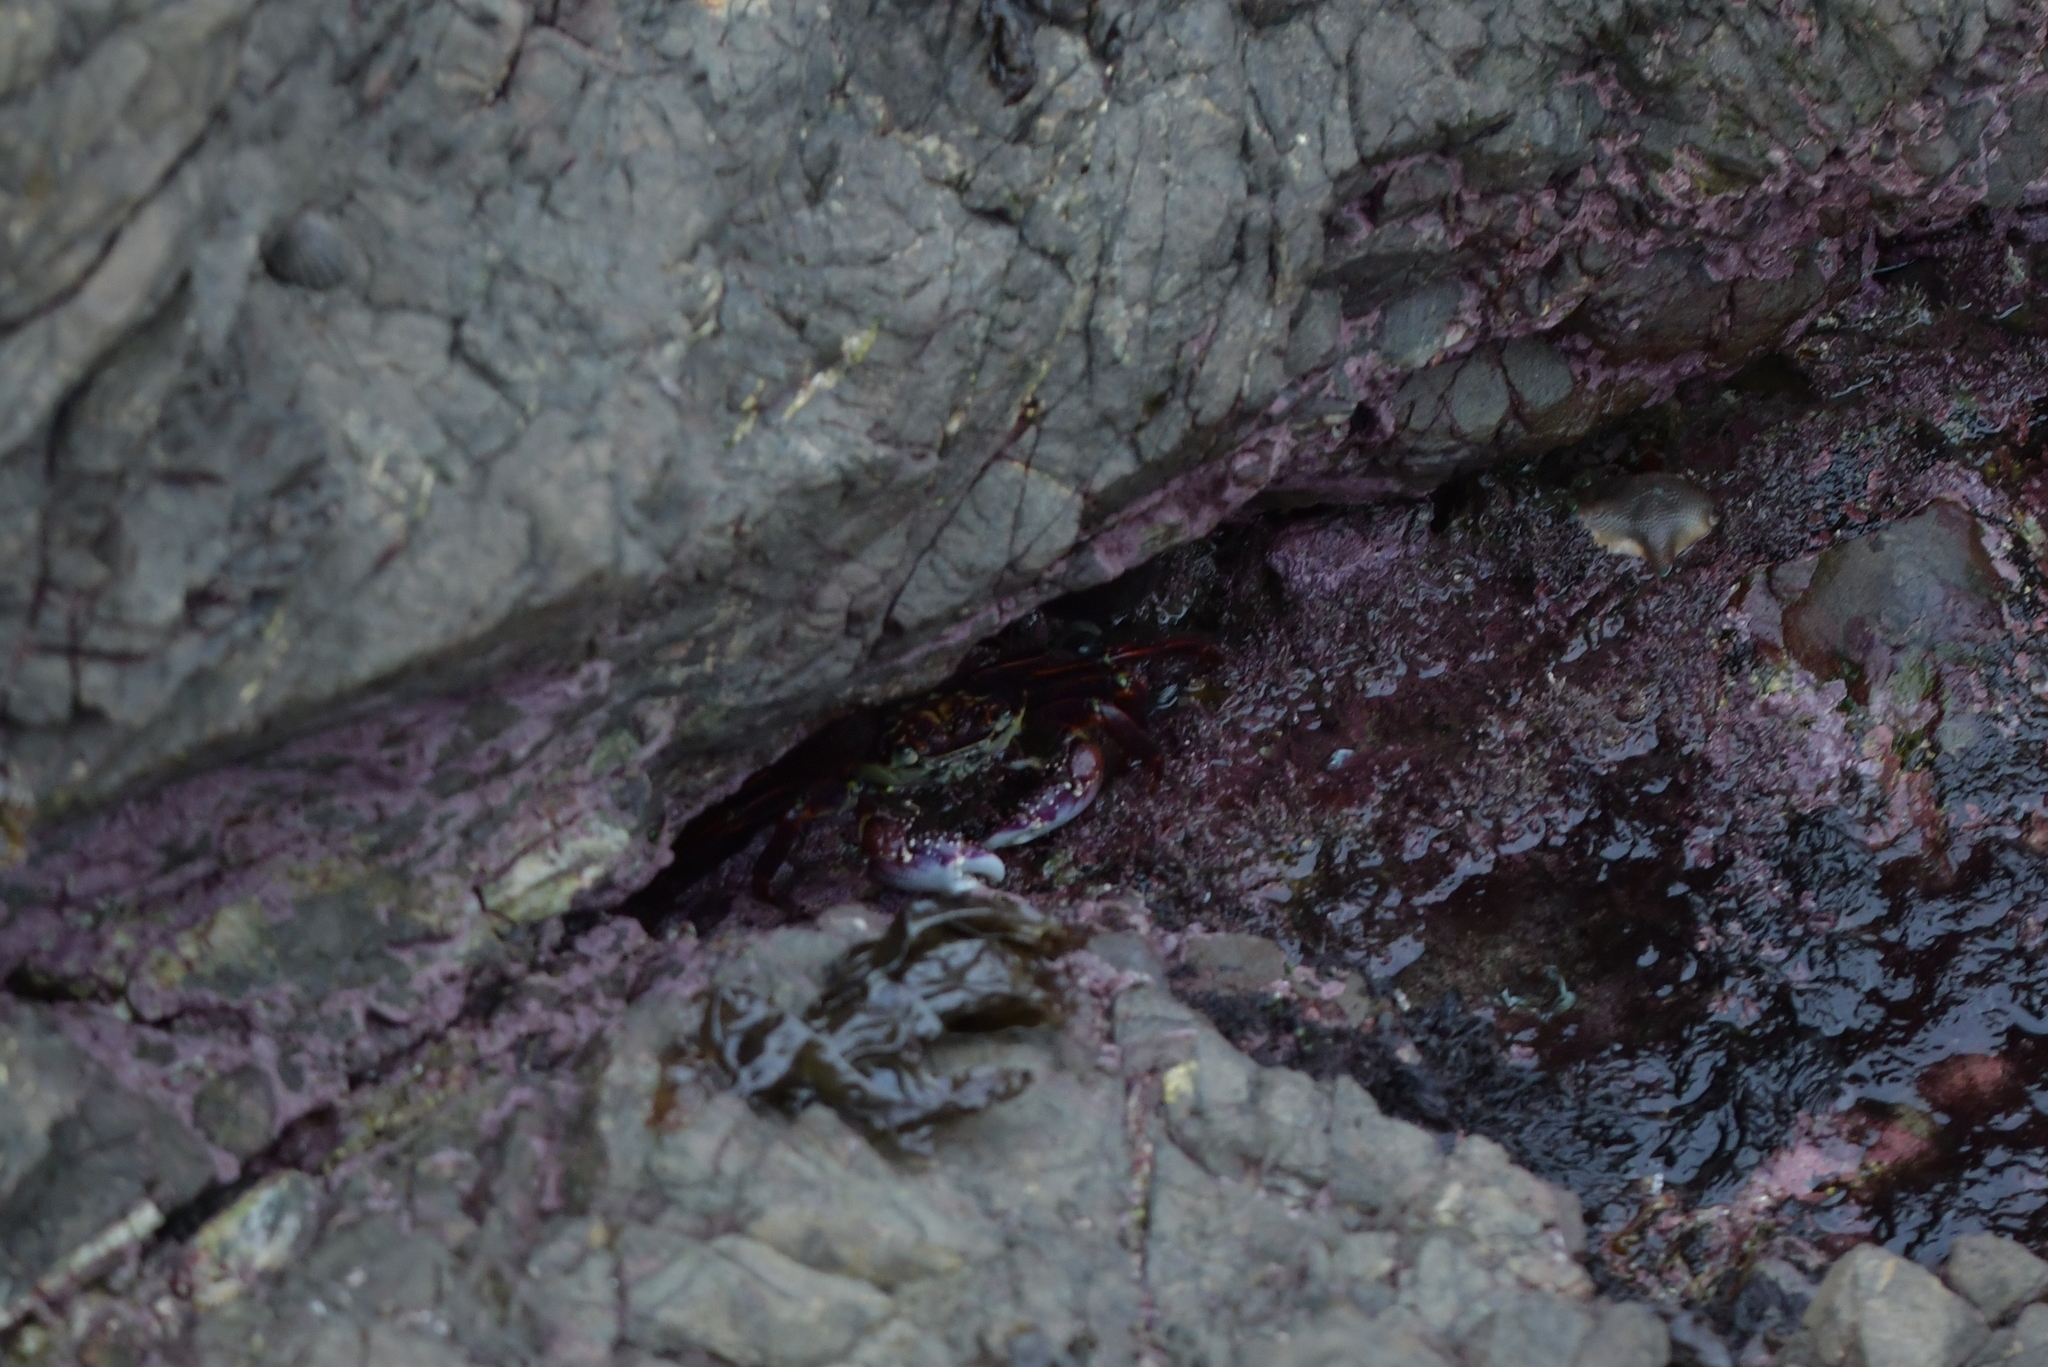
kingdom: Animalia
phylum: Arthropoda
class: Malacostraca
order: Decapoda
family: Grapsidae
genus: Leptograpsus
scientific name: Leptograpsus variegatus
